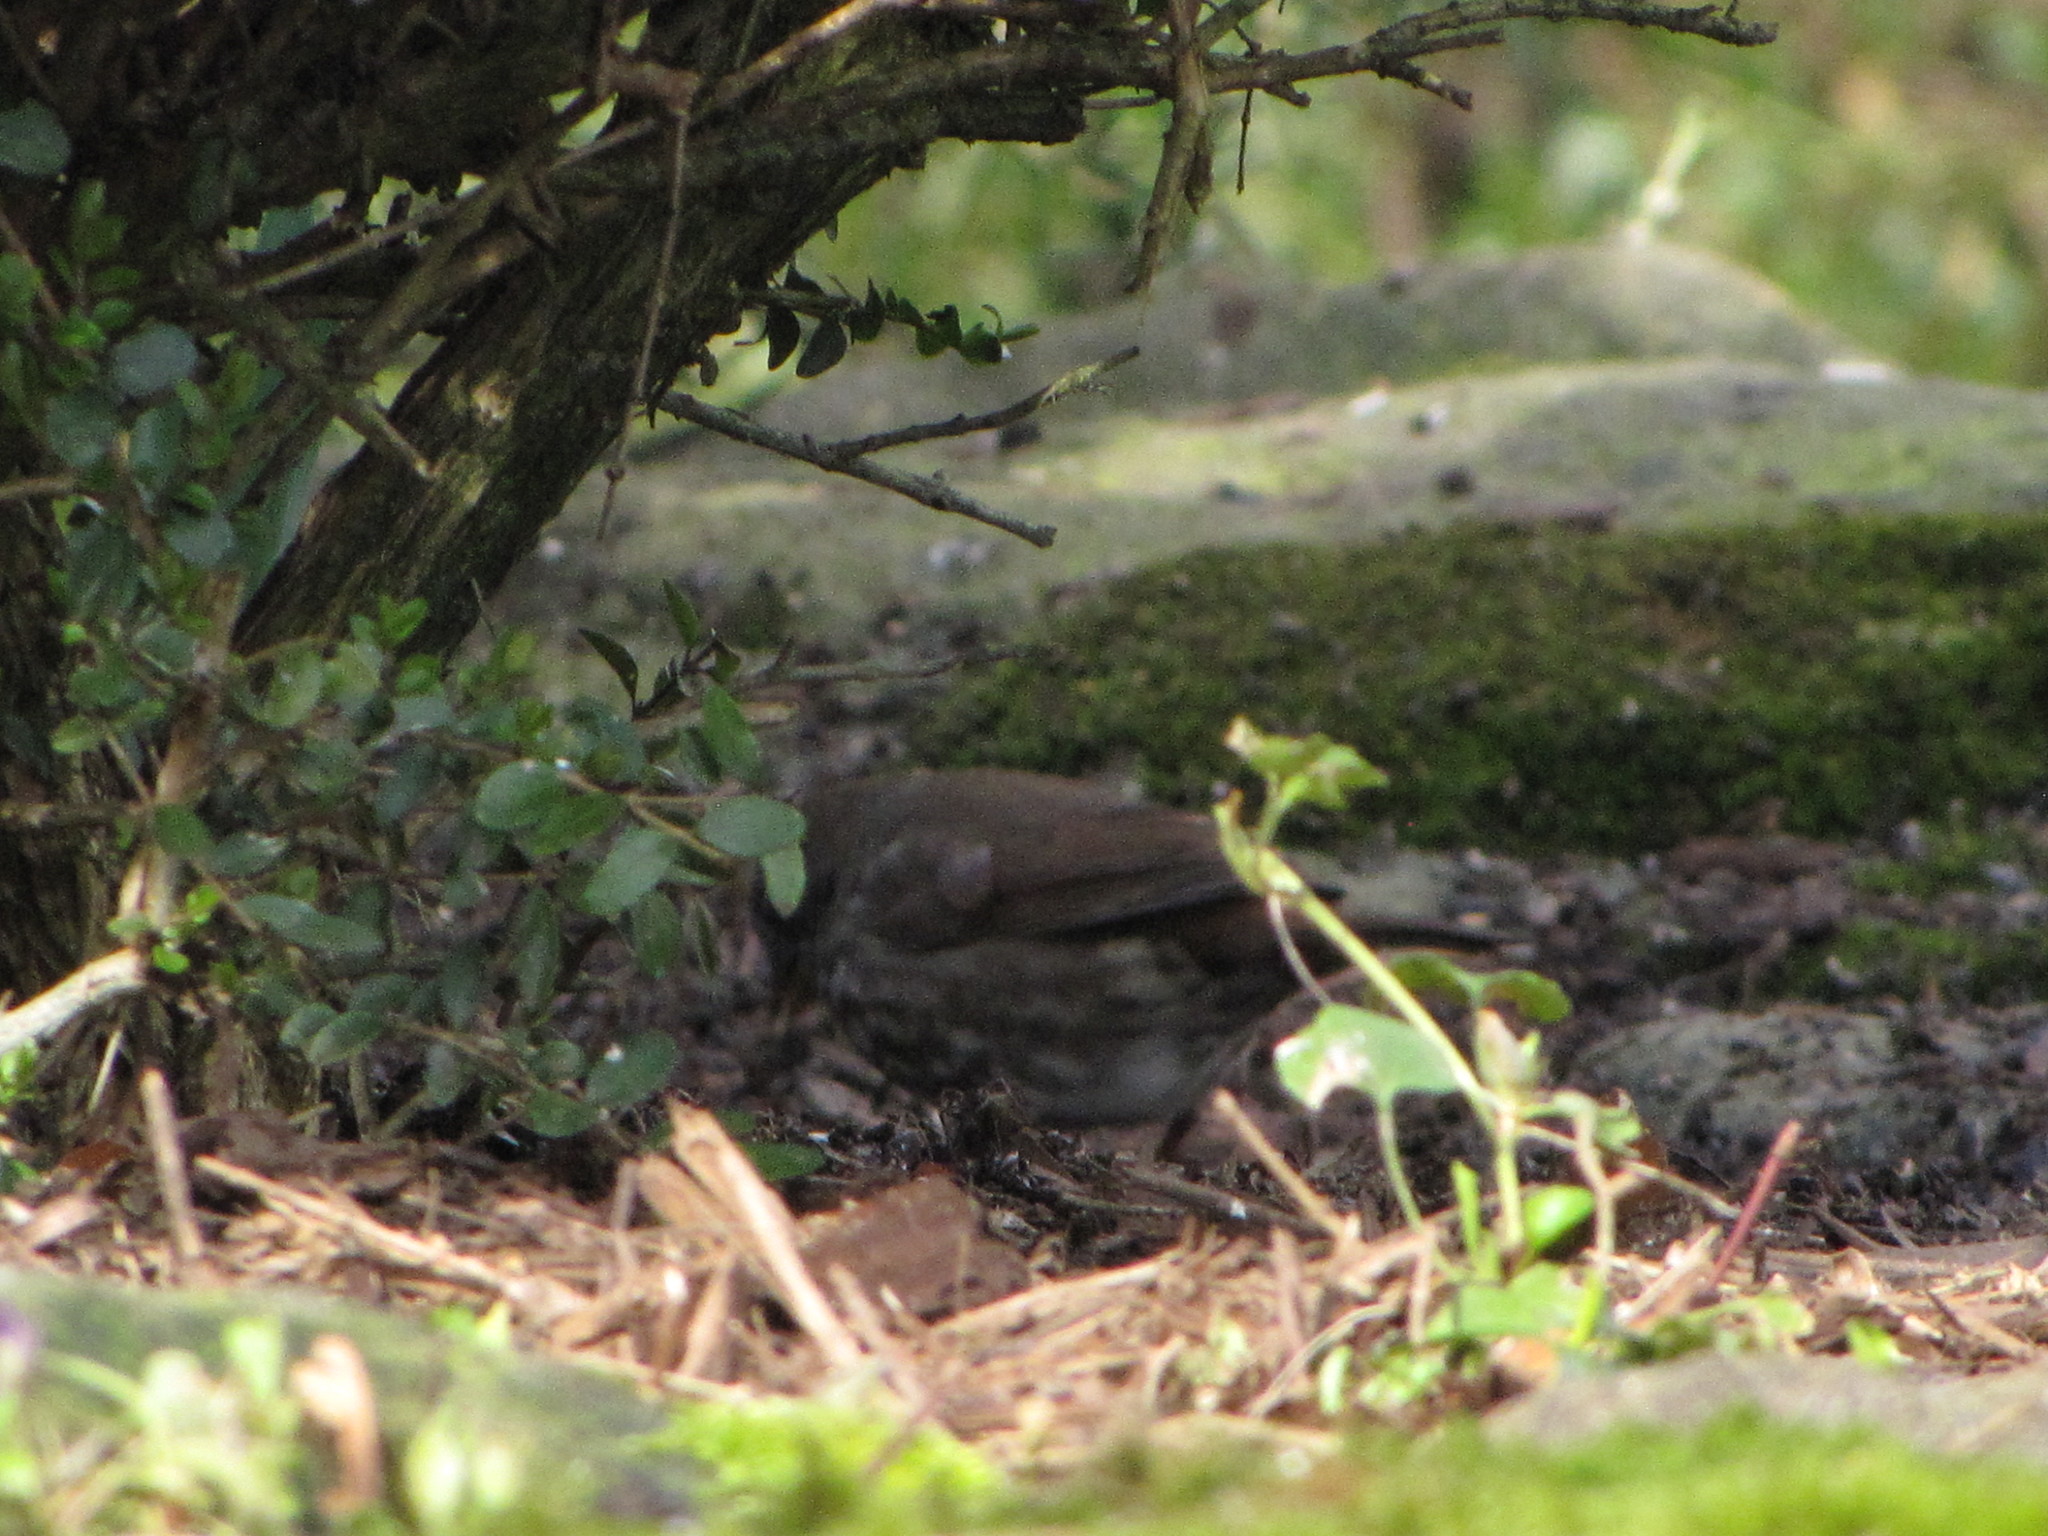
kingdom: Animalia
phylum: Chordata
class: Aves
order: Passeriformes
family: Passerellidae
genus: Passerella
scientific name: Passerella iliaca
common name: Fox sparrow
